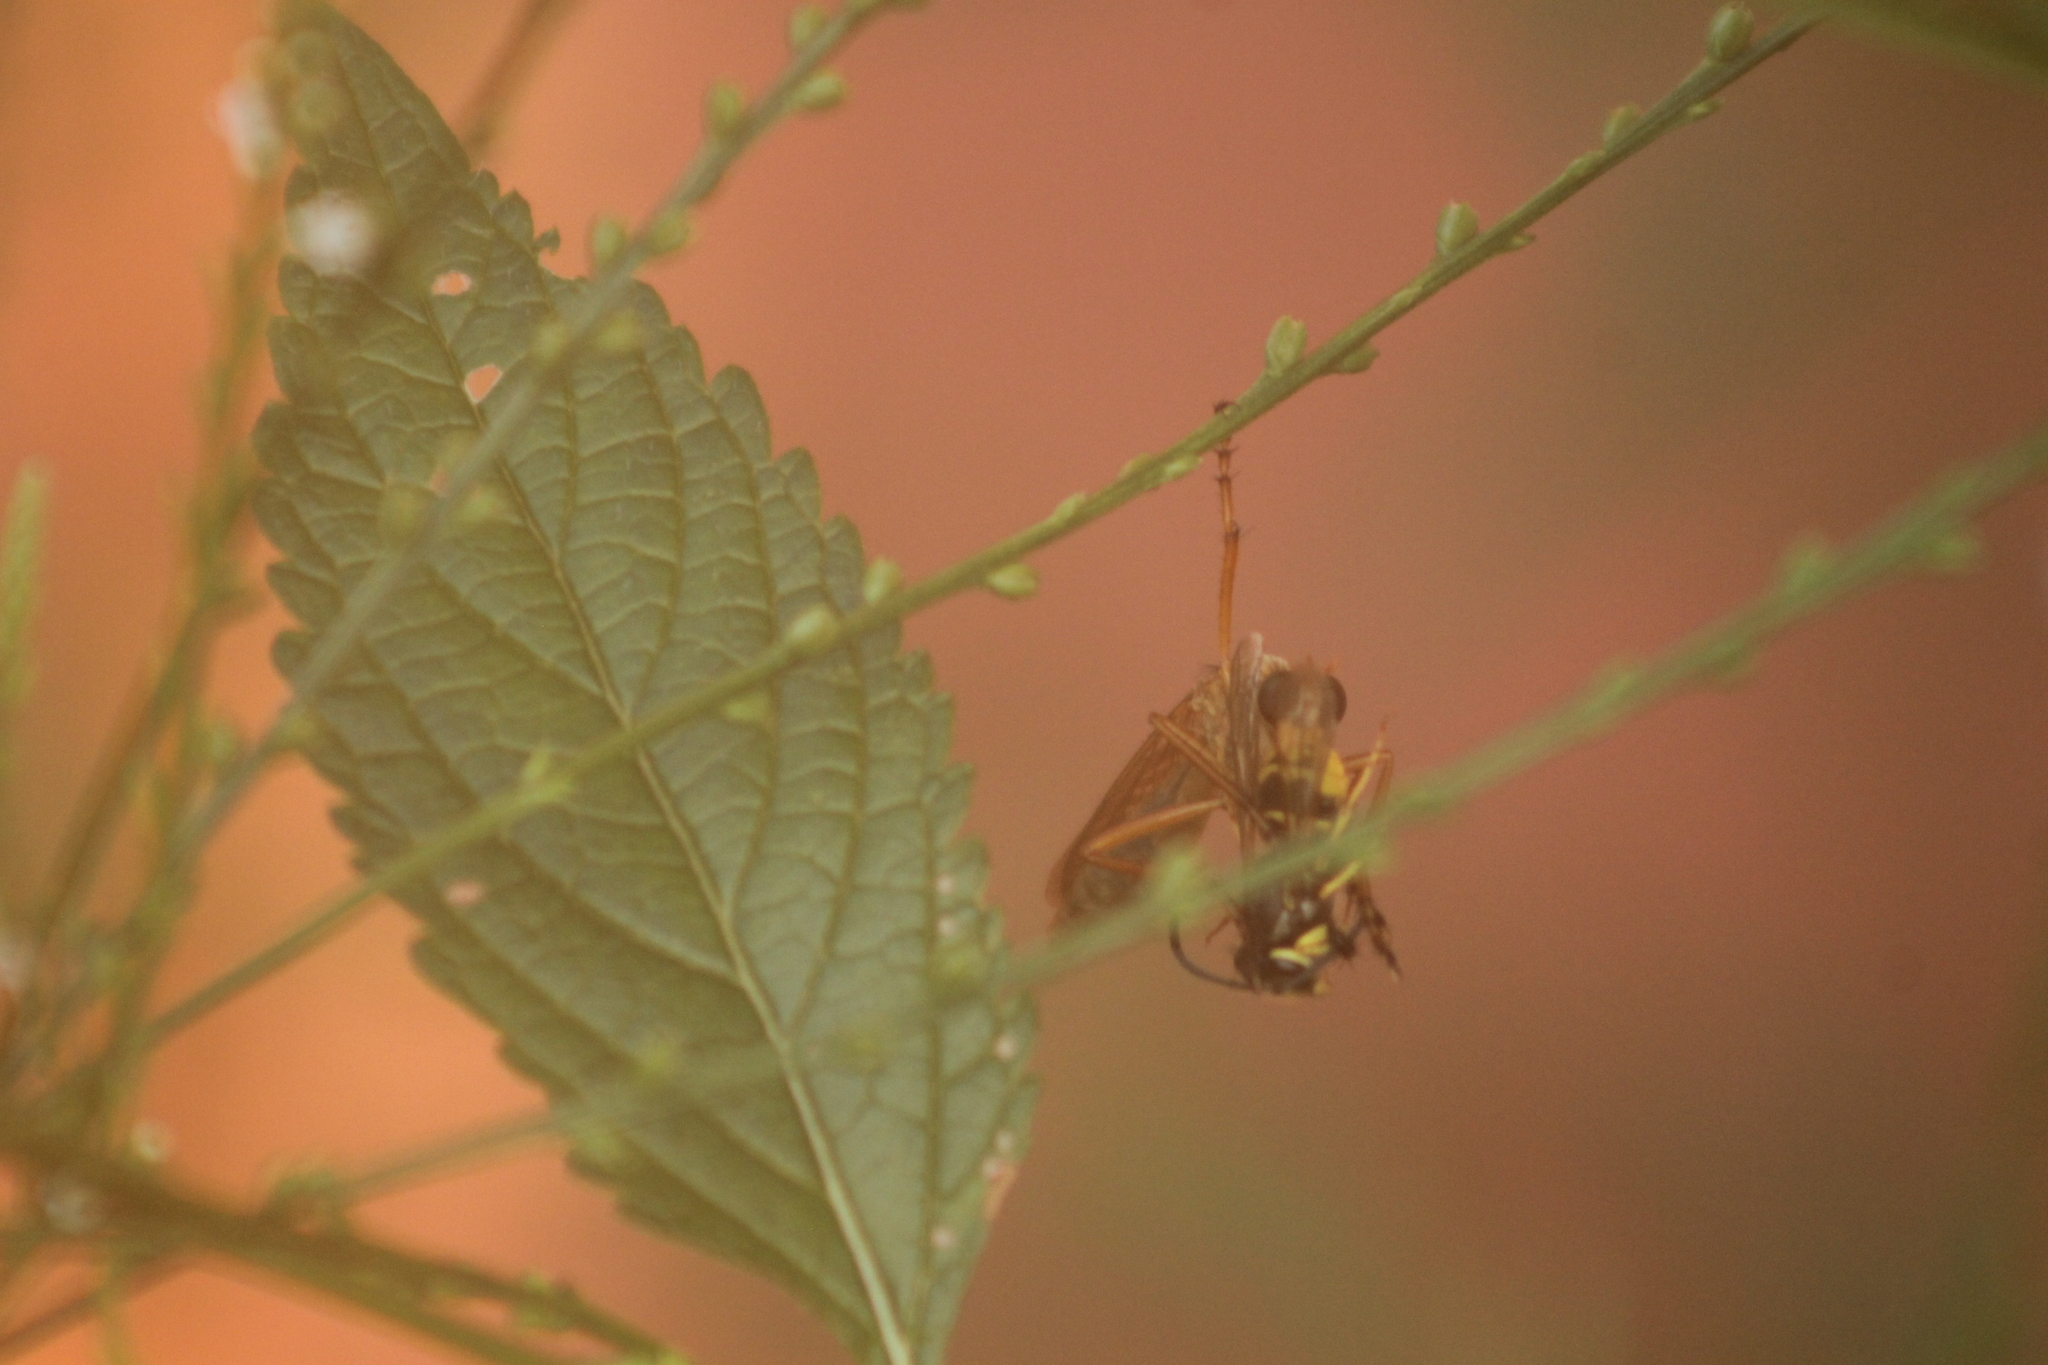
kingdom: Animalia
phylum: Arthropoda
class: Insecta
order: Diptera
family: Asilidae
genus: Diogmites
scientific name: Diogmites neoternatus
